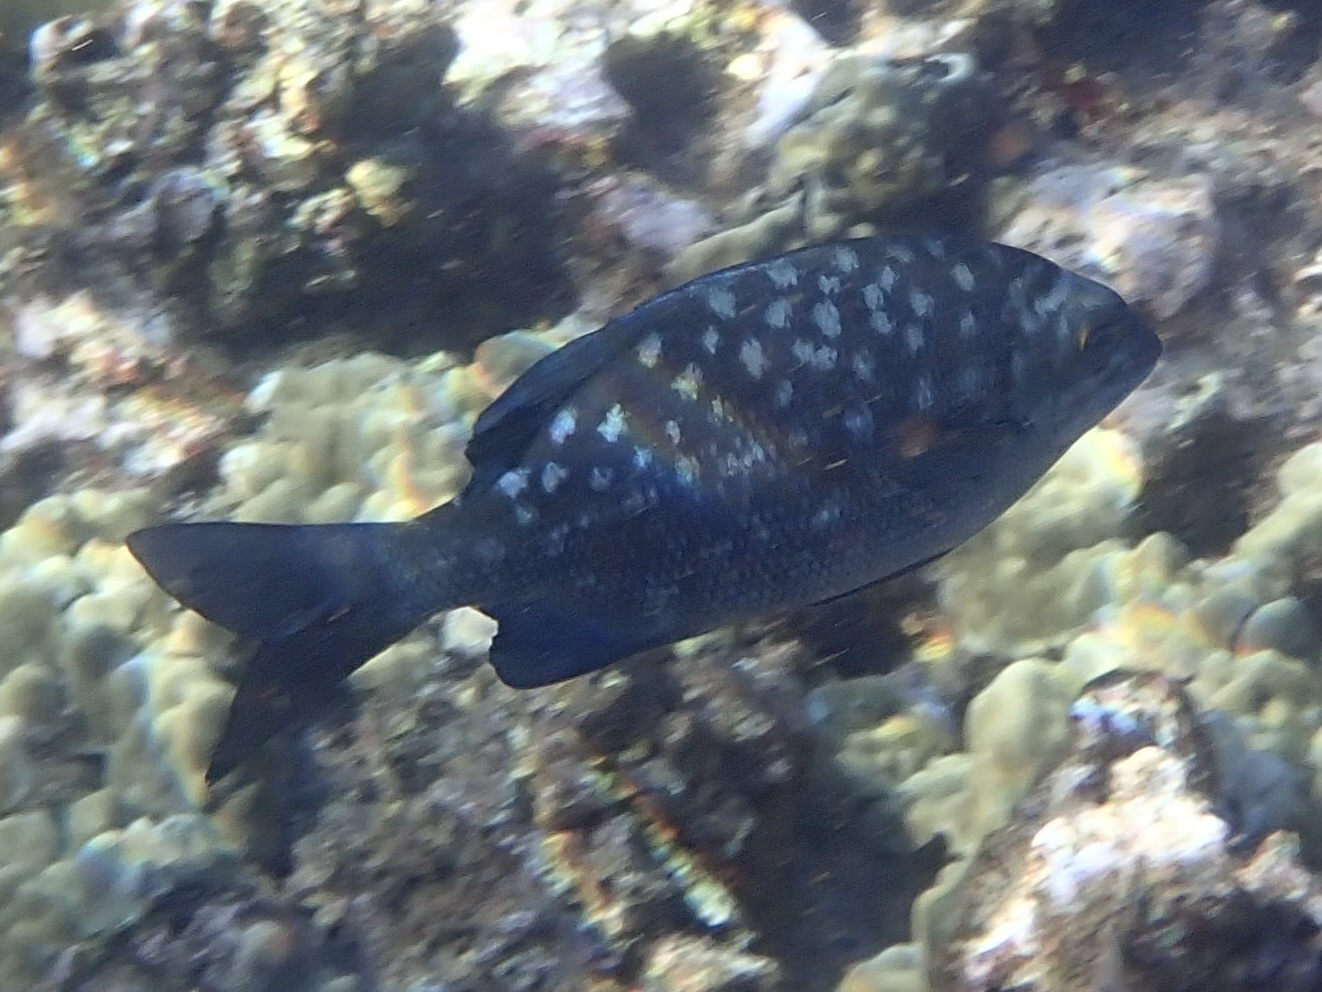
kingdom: Animalia
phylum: Chordata
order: Perciformes
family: Kyphosidae
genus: Kyphosus
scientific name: Kyphosus cinerascens
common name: Topsail drummer
